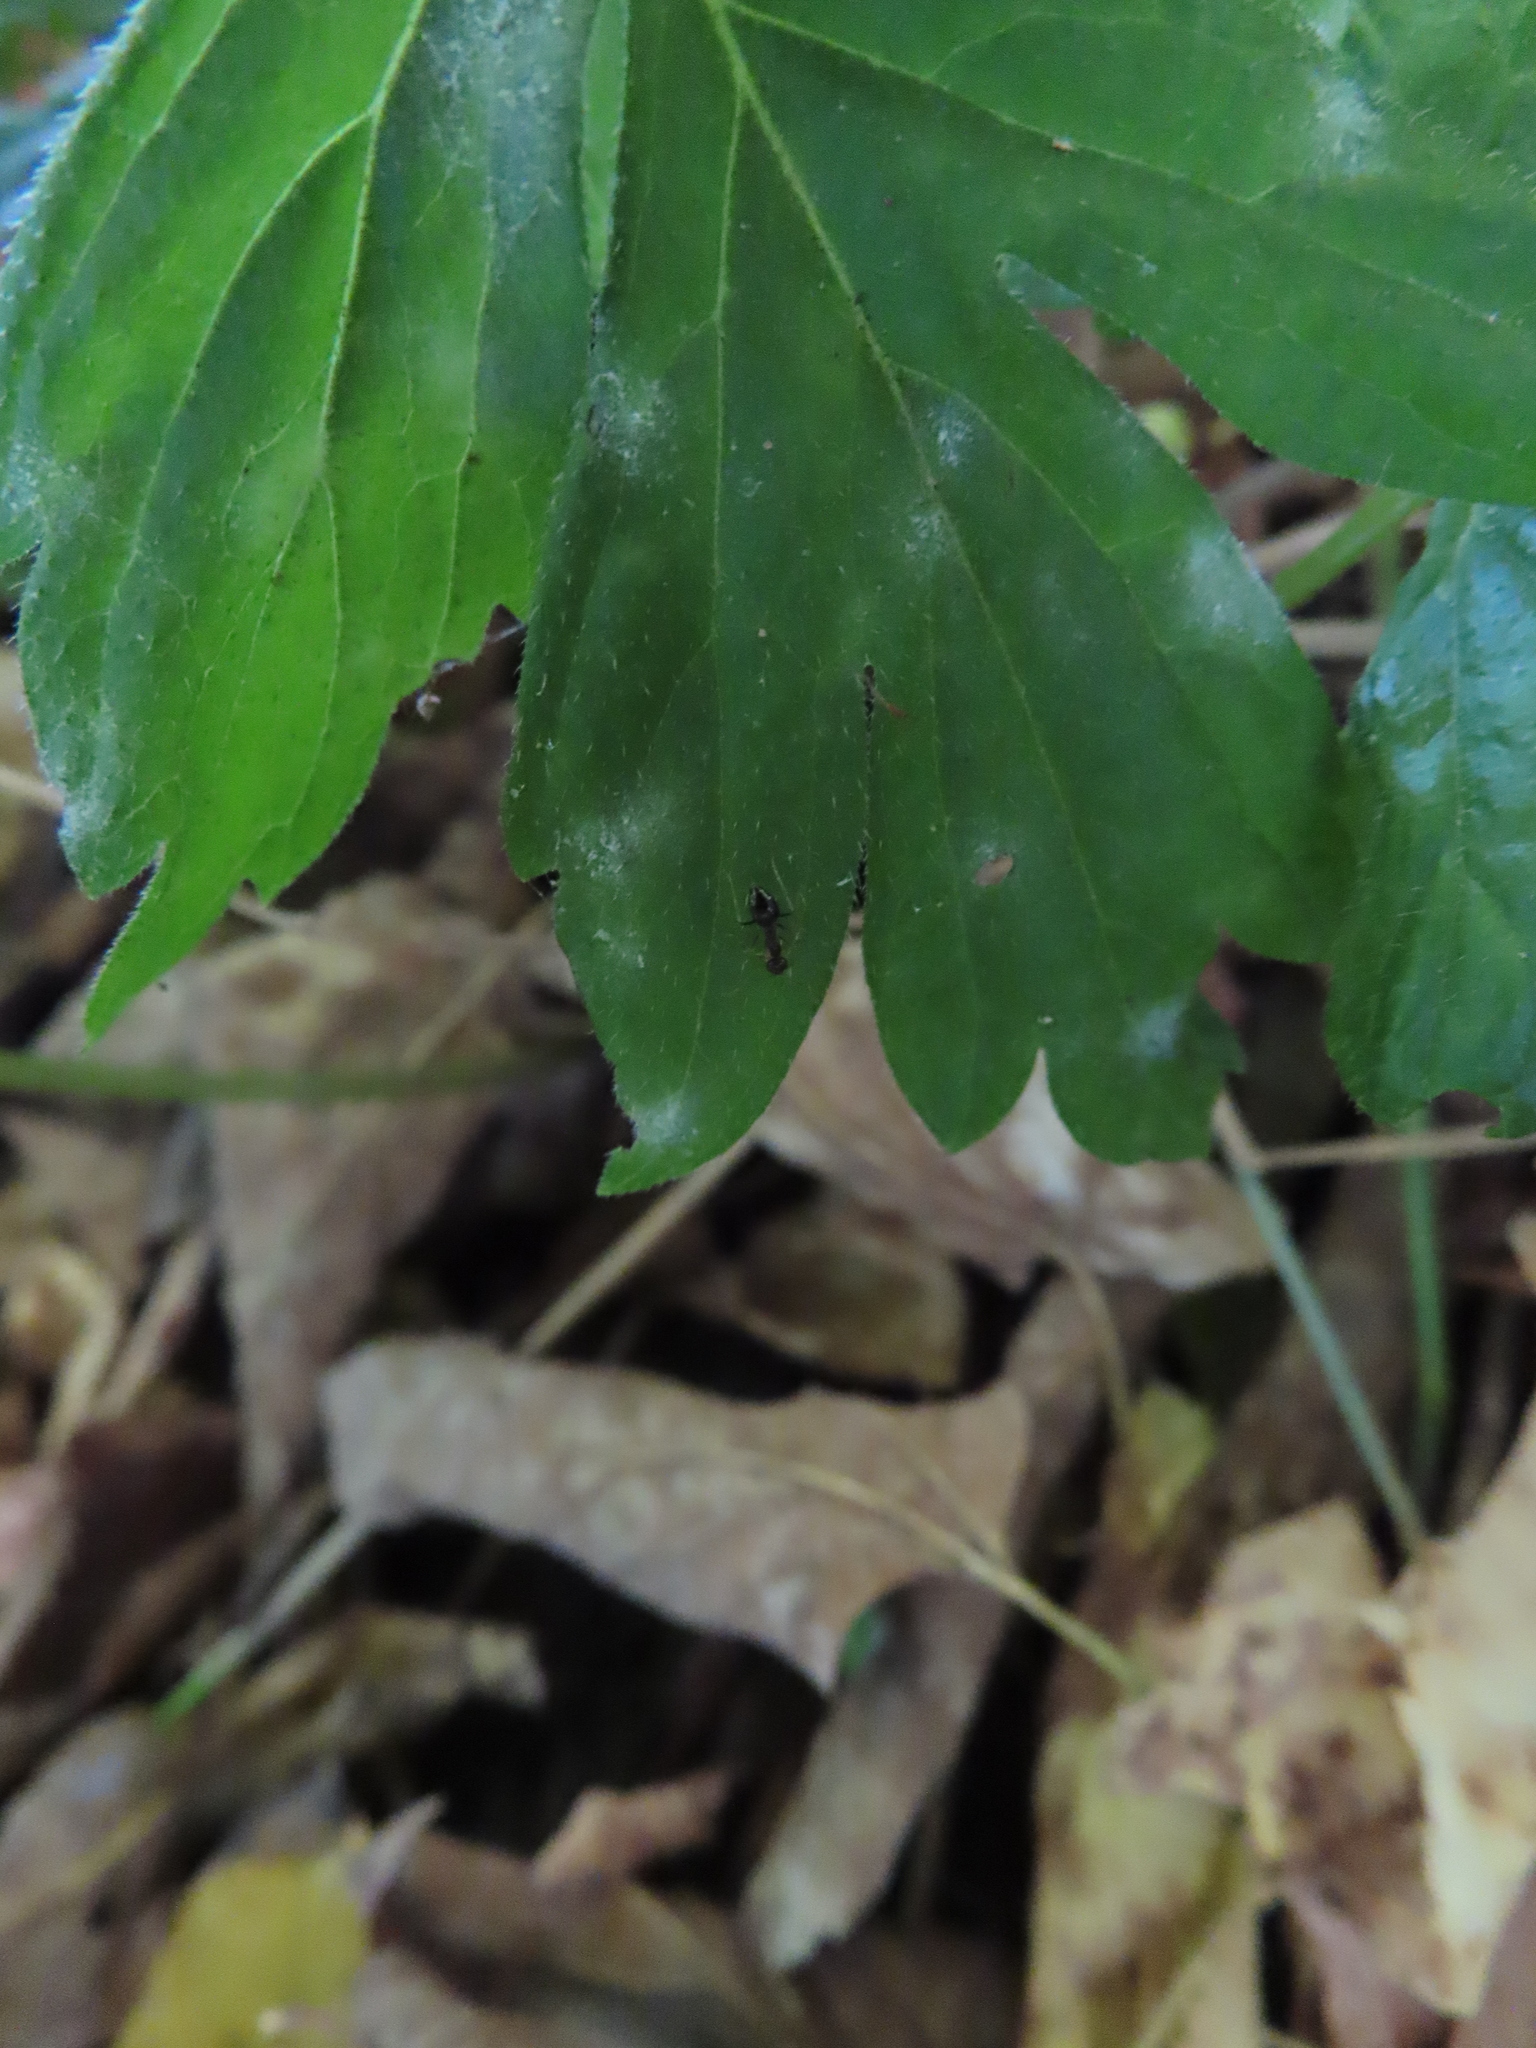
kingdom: Fungi
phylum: Ascomycota
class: Leotiomycetes
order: Helotiales
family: Erysiphaceae
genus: Golovinomyces
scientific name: Golovinomyces hydrophyllacearum
